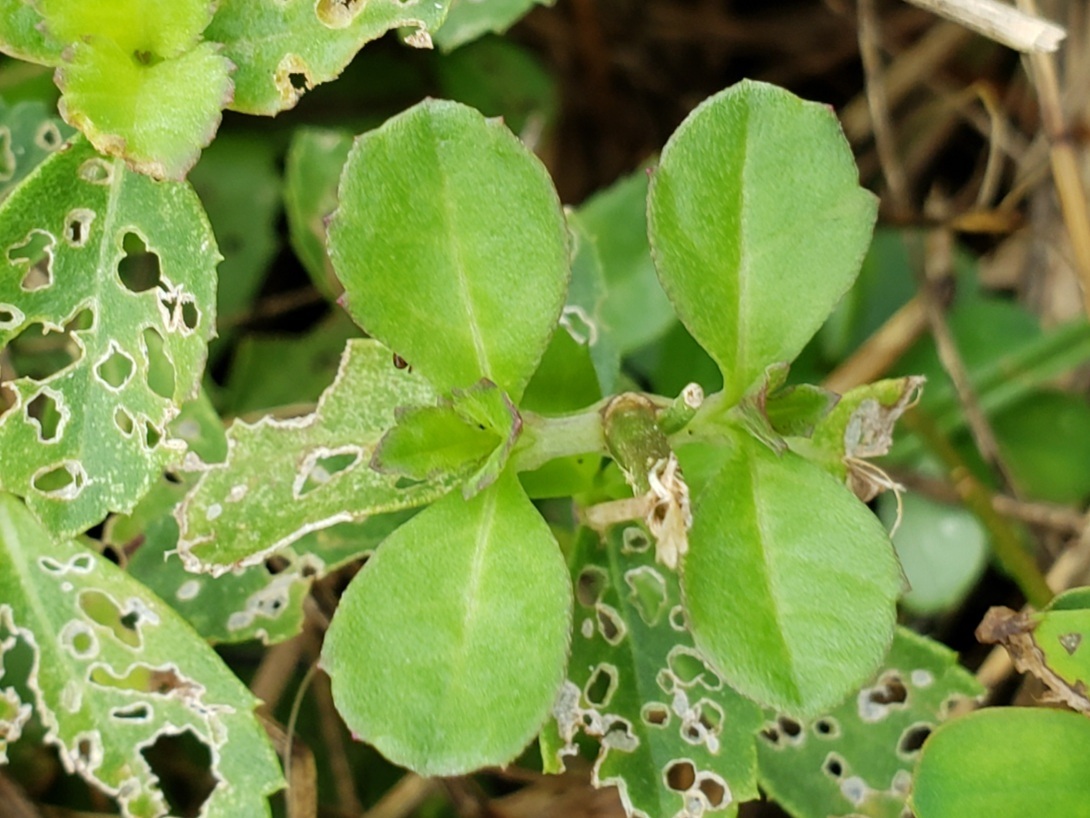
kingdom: Plantae
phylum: Tracheophyta
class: Magnoliopsida
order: Lamiales
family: Verbenaceae
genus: Phyla
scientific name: Phyla nodiflora
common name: Frogfruit
